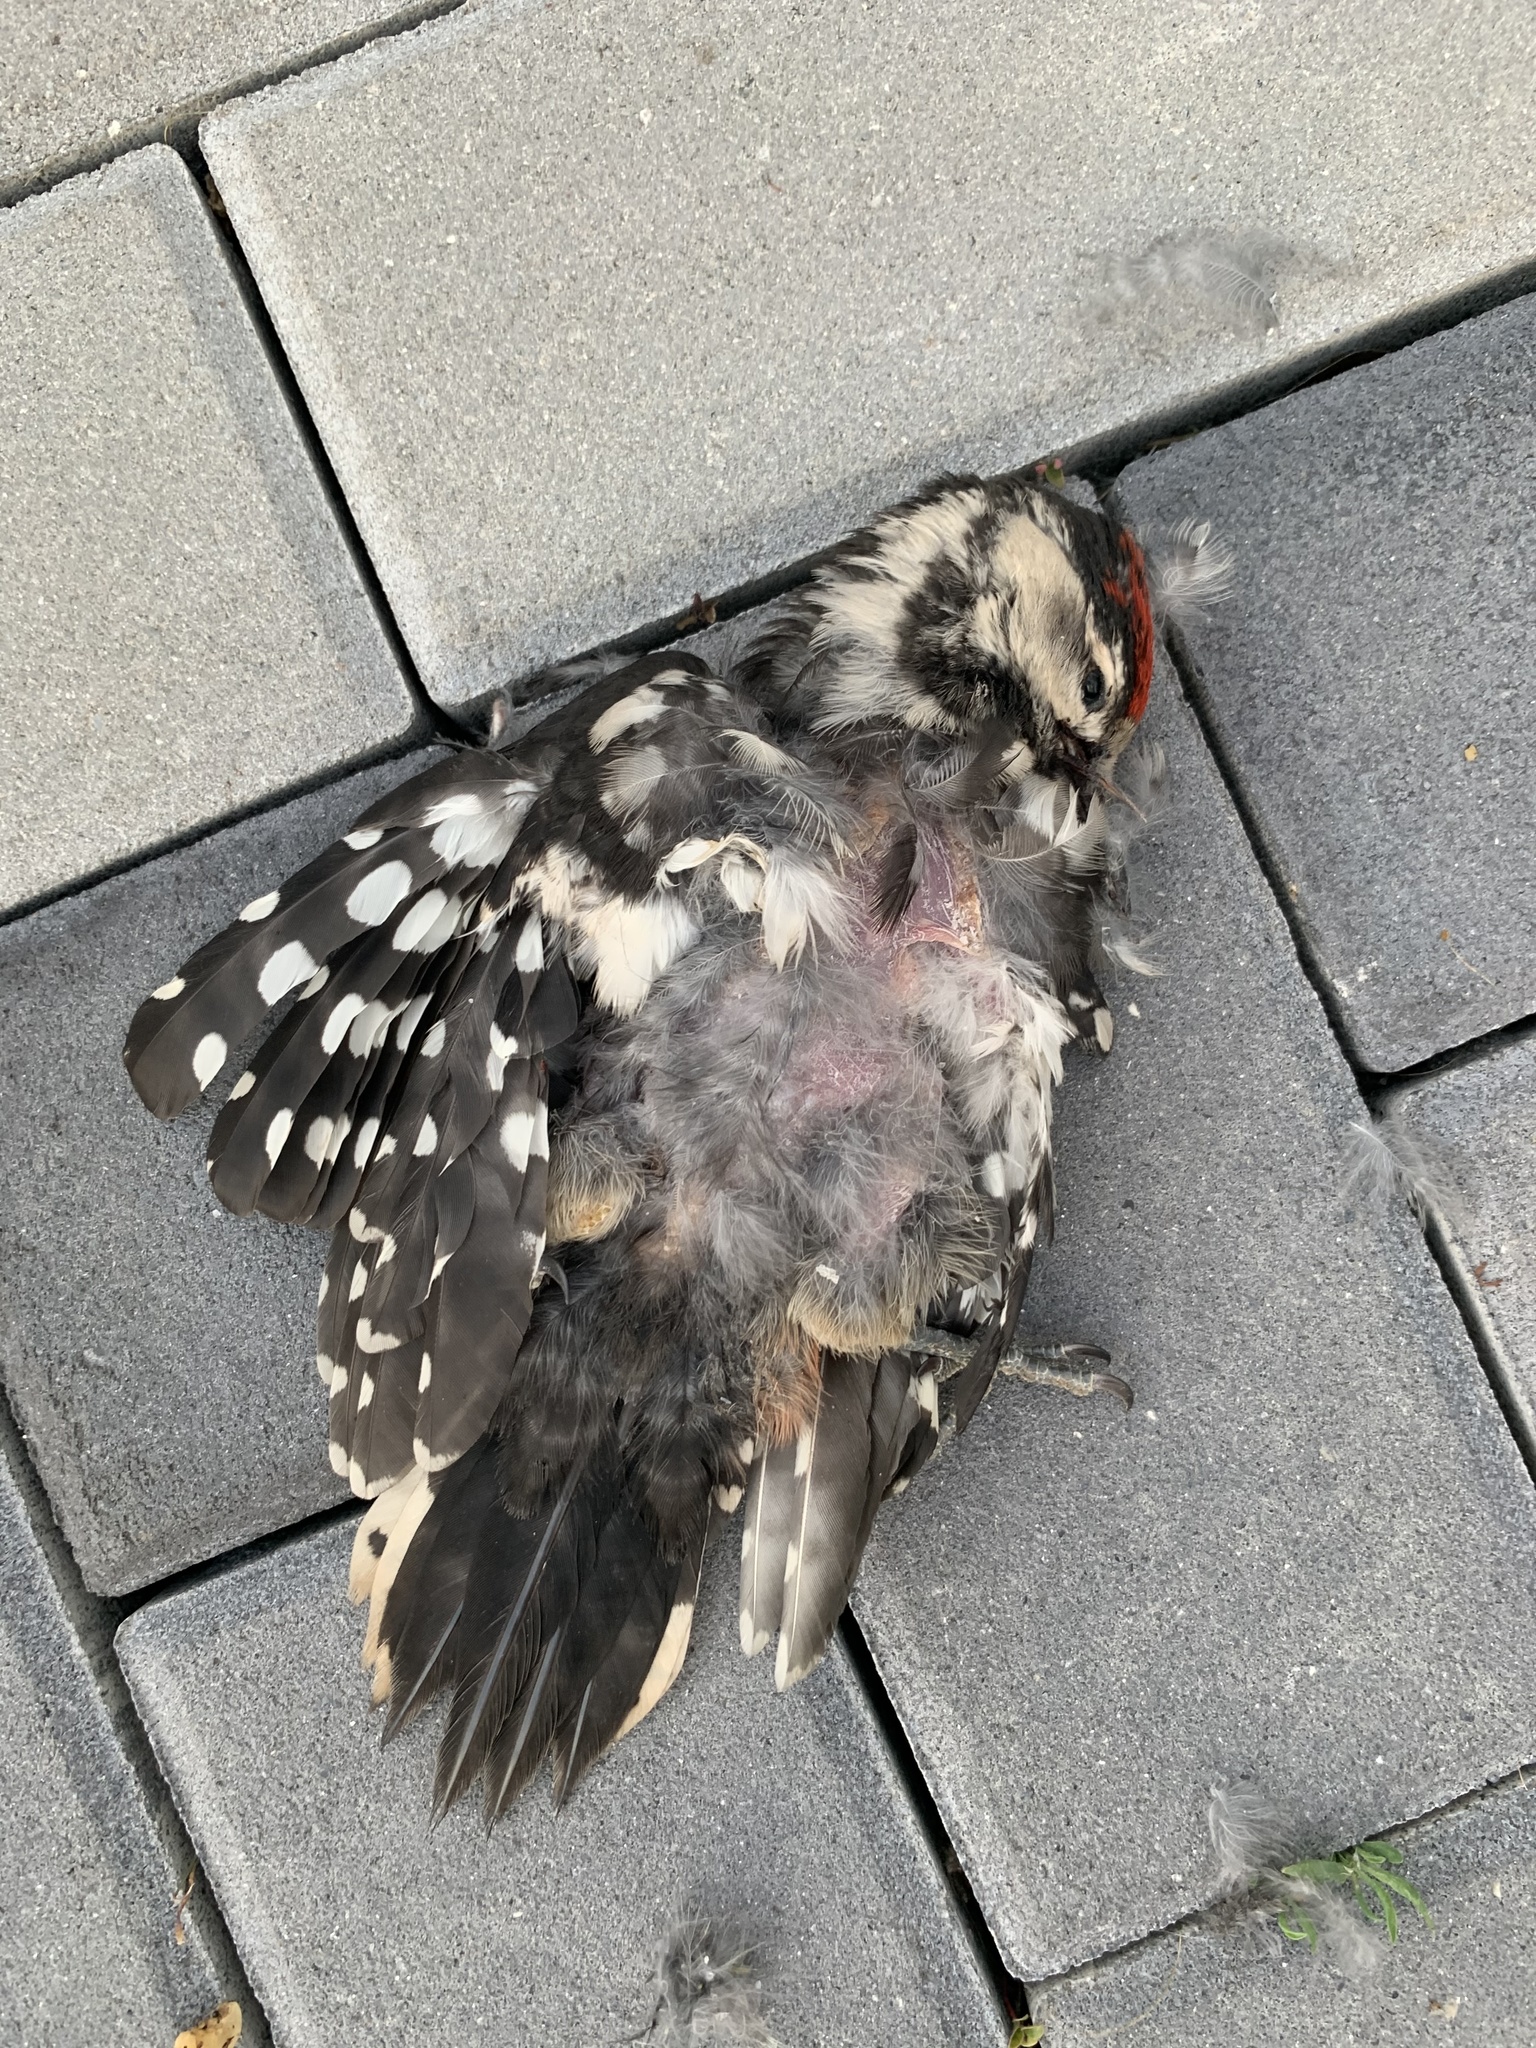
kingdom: Animalia
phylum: Chordata
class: Aves
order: Piciformes
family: Picidae
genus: Dendrocopos
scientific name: Dendrocopos major
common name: Great spotted woodpecker
